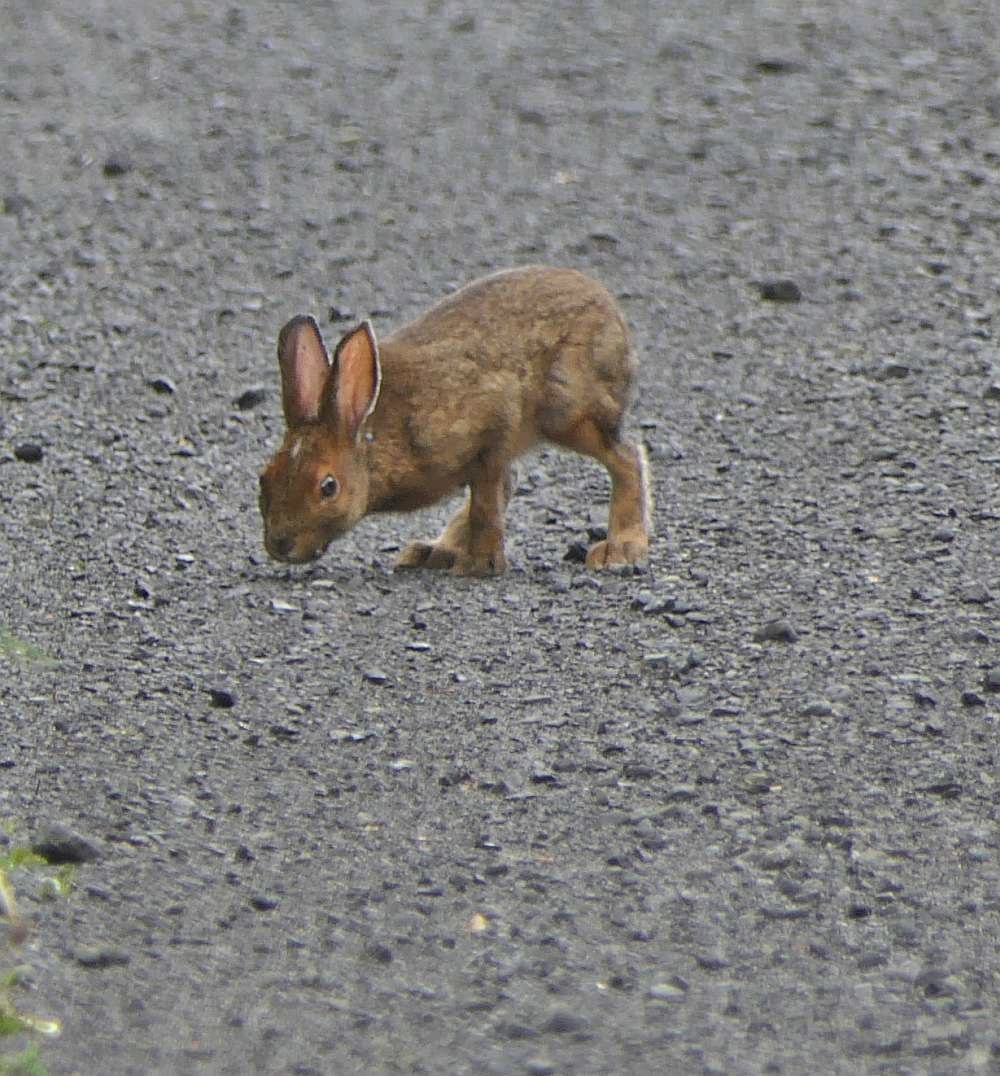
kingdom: Animalia
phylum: Chordata
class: Mammalia
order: Lagomorpha
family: Leporidae
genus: Lepus
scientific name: Lepus americanus
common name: Snowshoe hare
